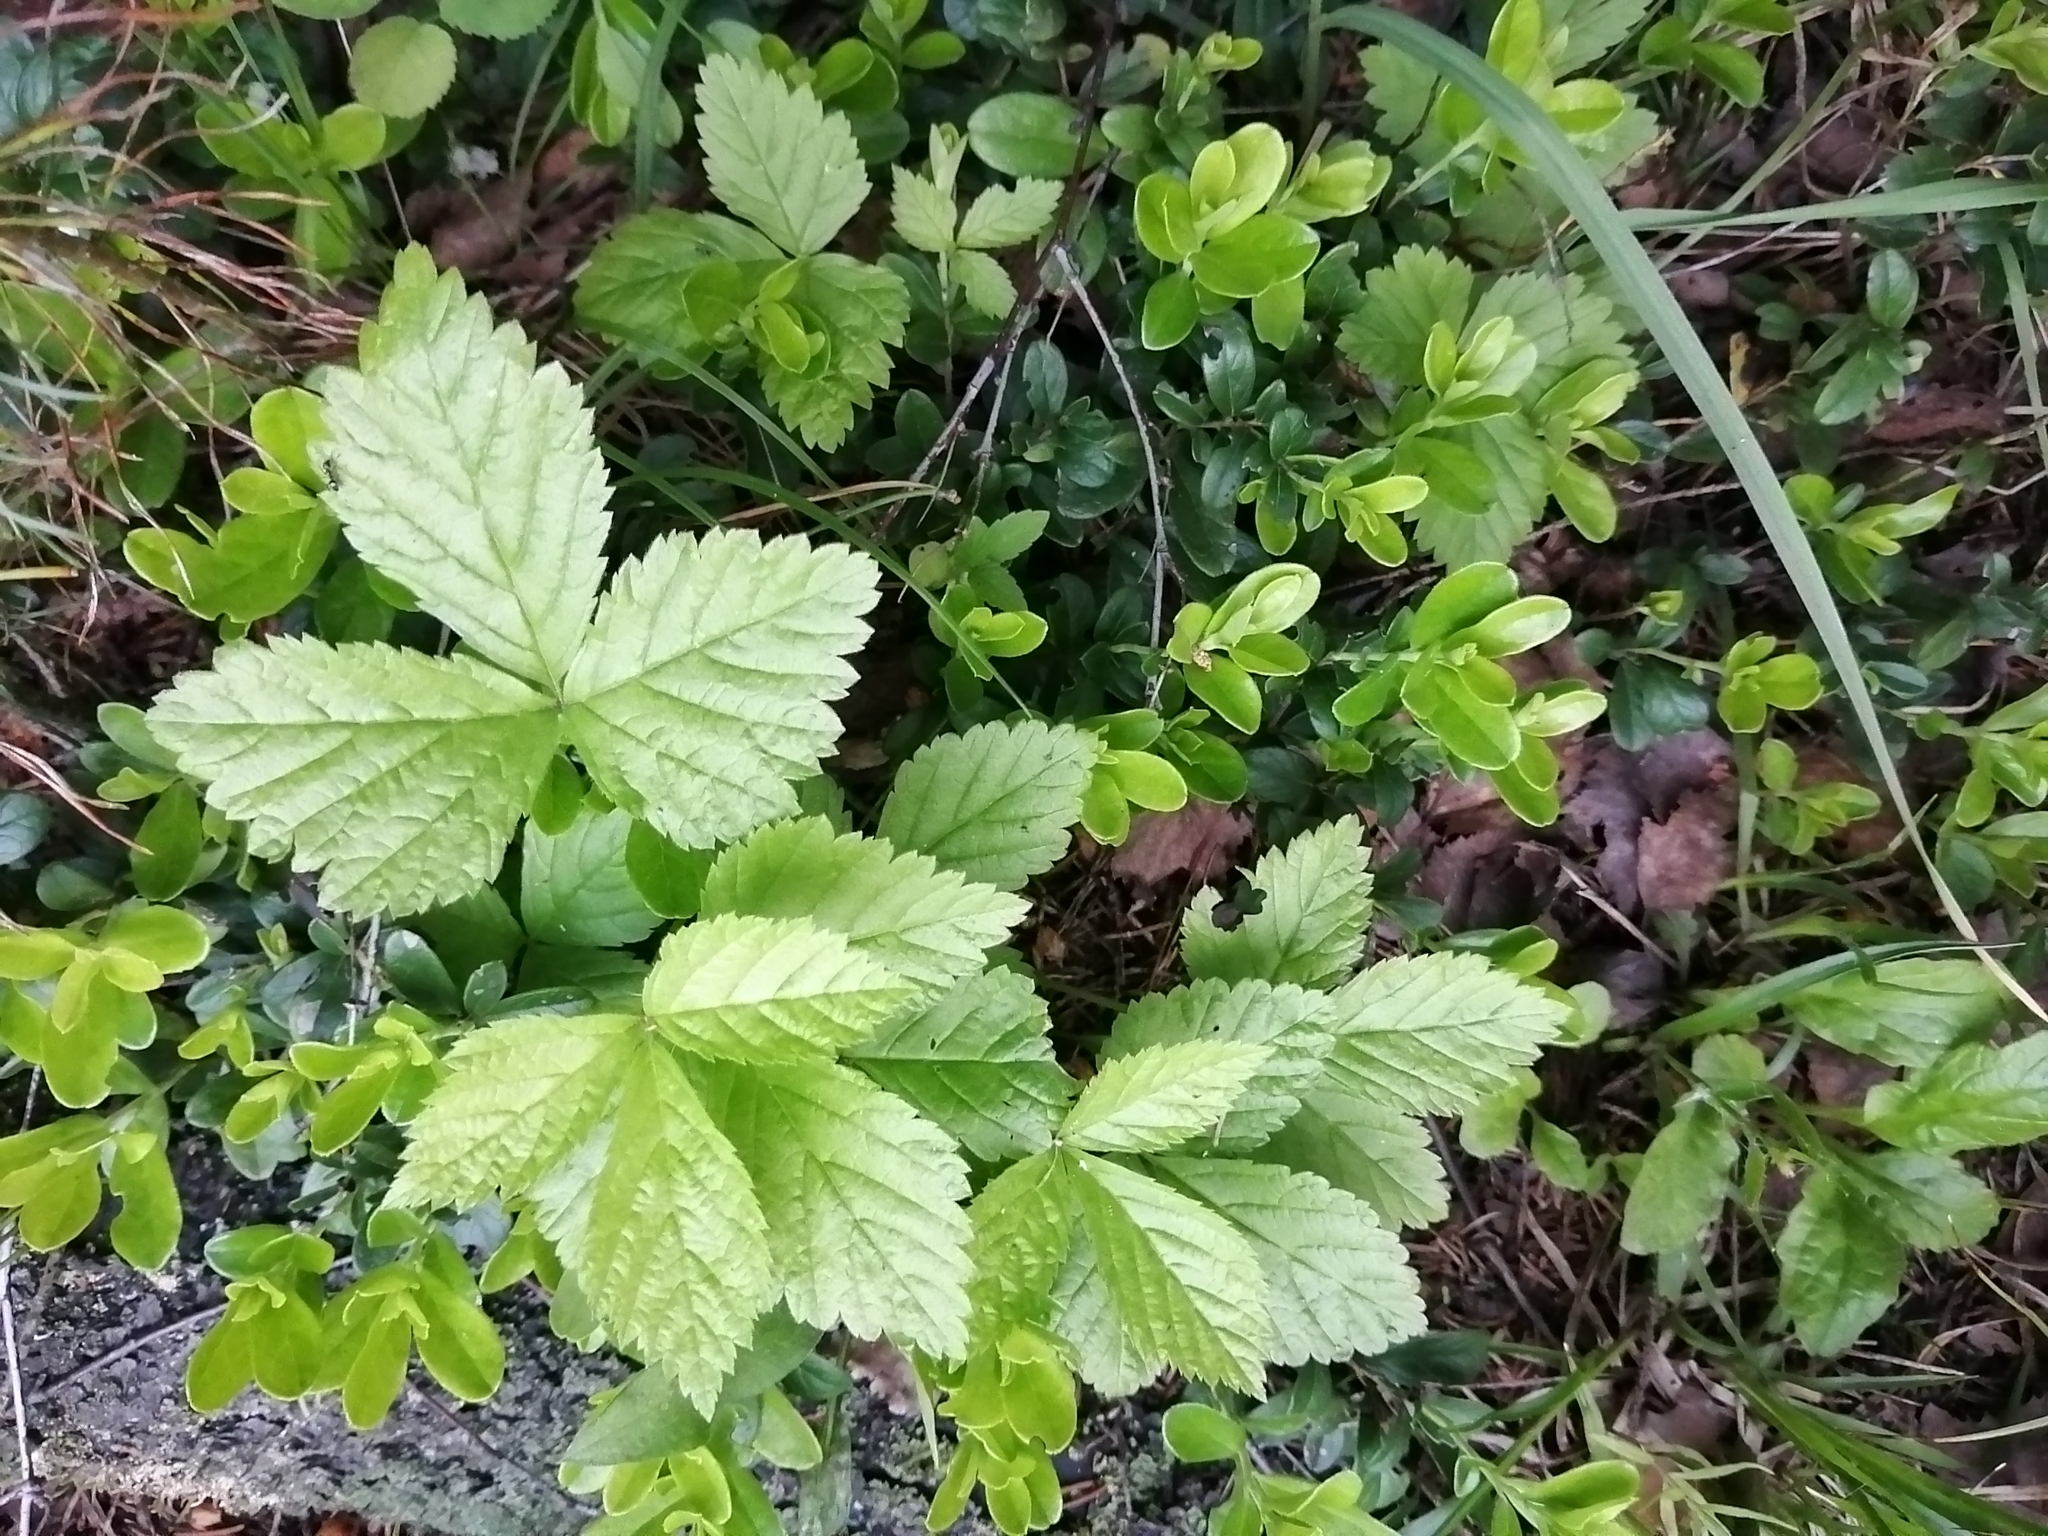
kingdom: Plantae
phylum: Tracheophyta
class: Magnoliopsida
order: Rosales
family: Rosaceae
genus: Rubus
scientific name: Rubus saxatilis
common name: Stone bramble
